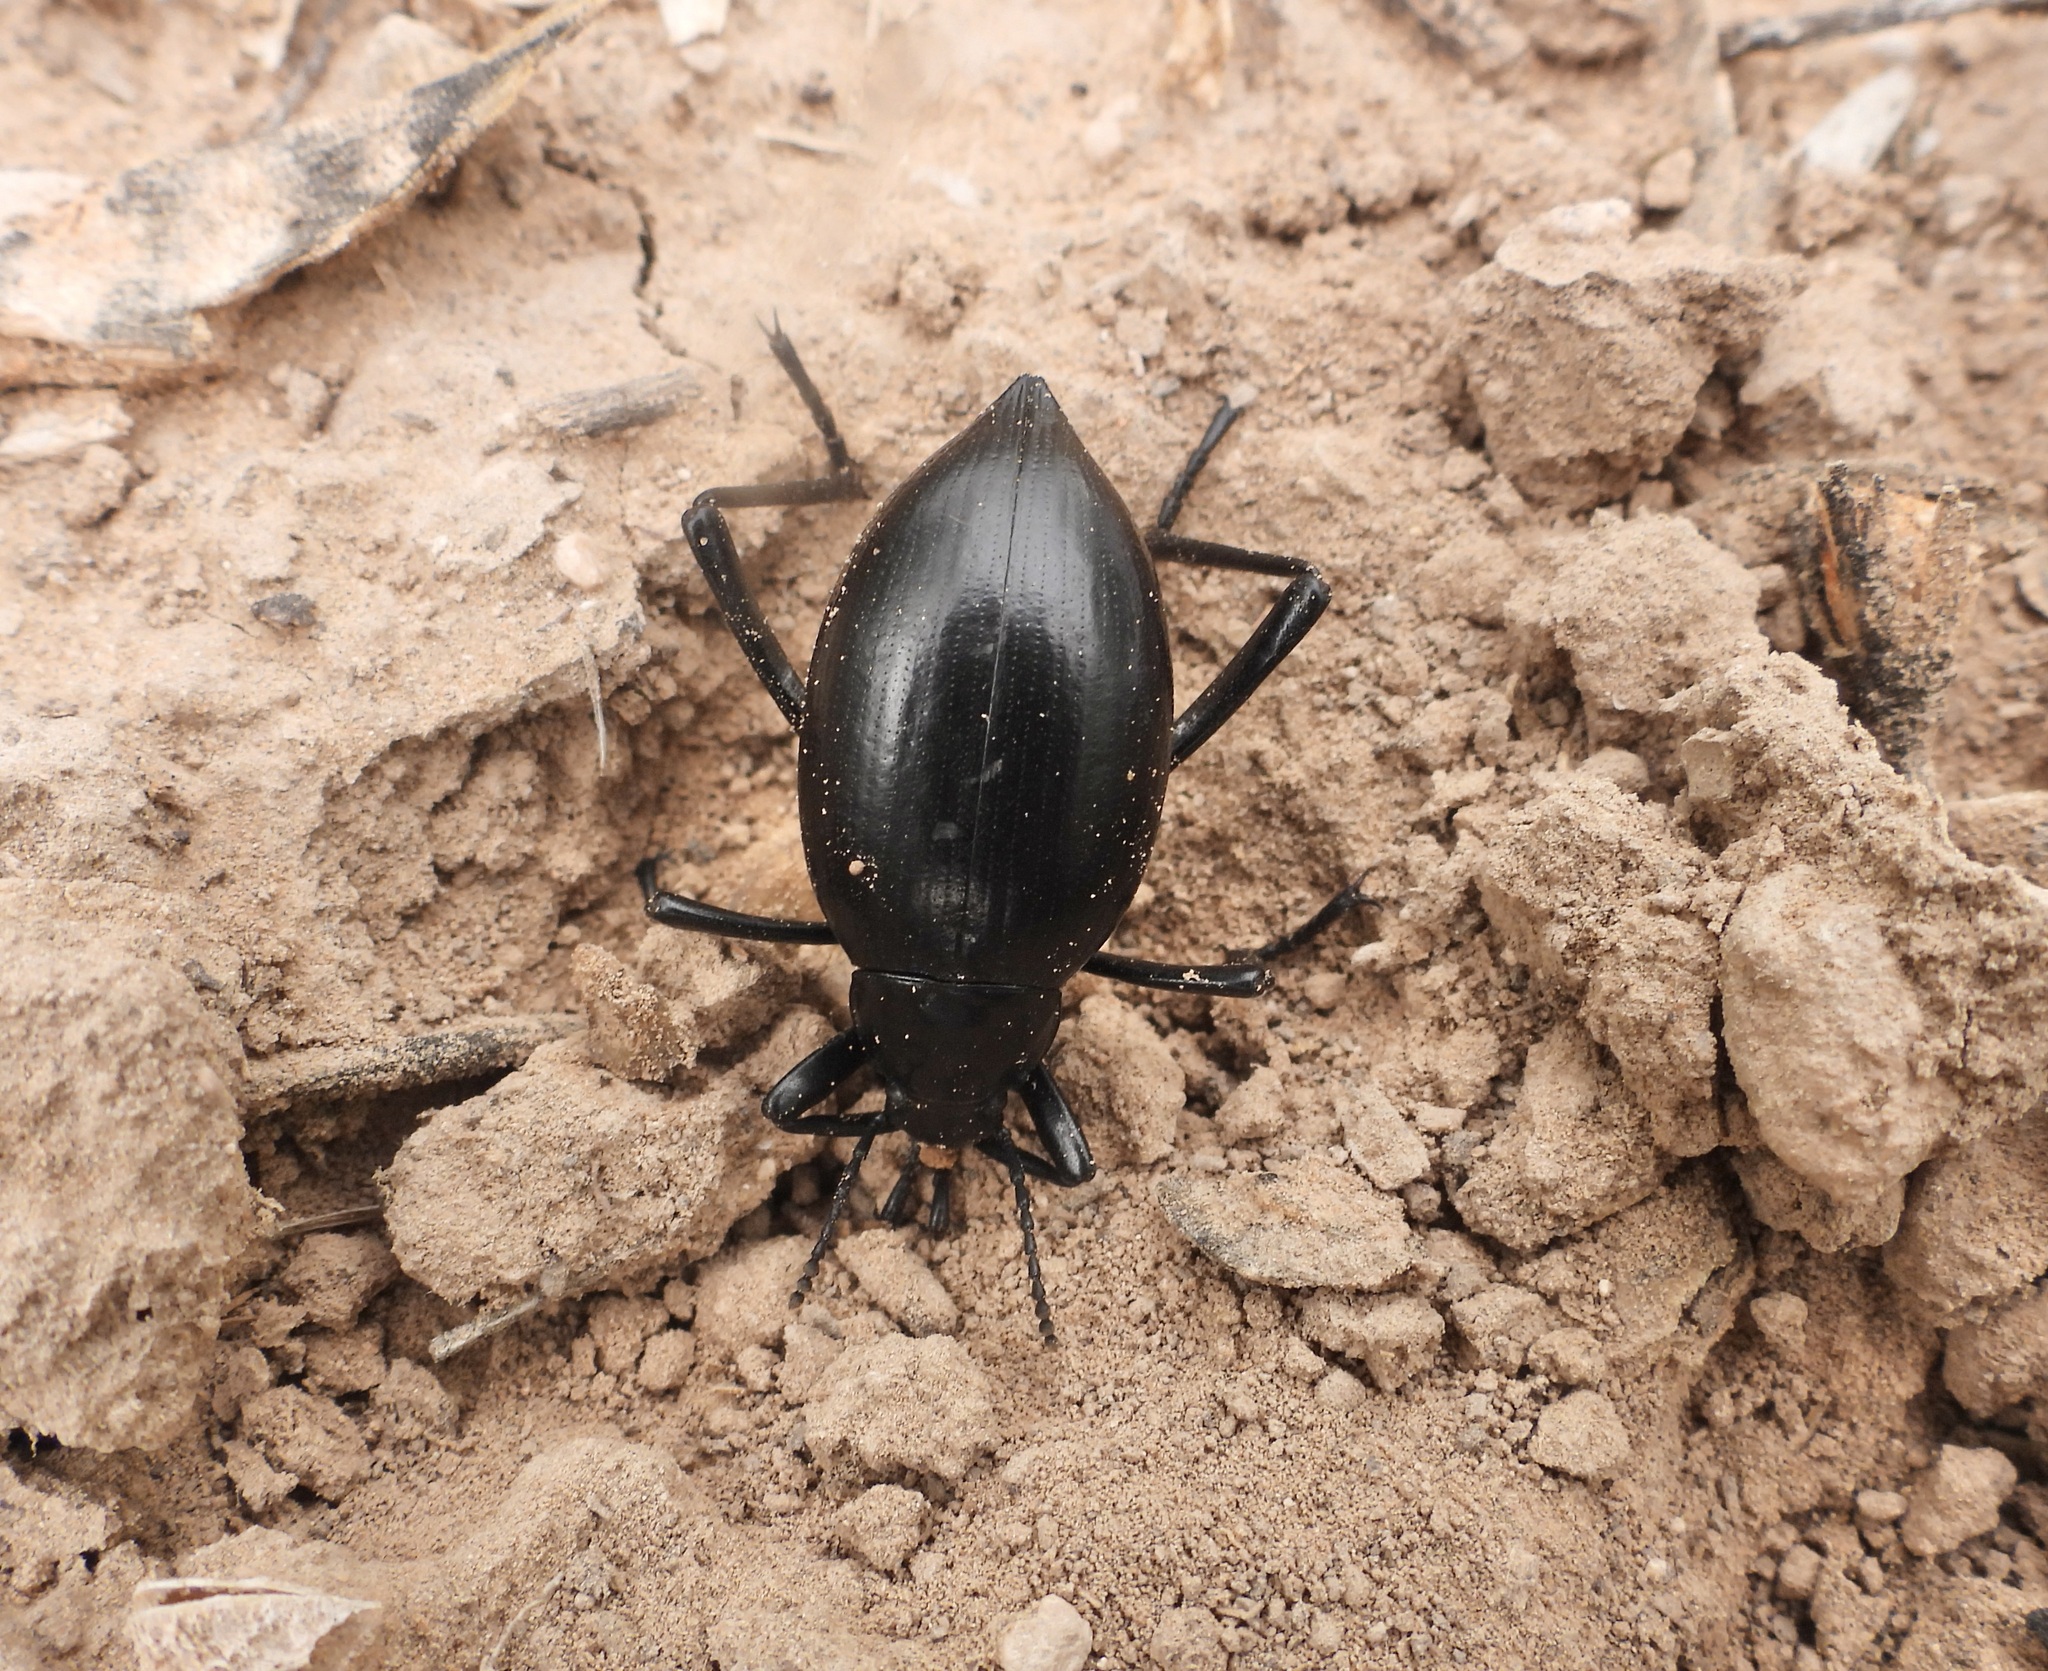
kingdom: Animalia
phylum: Arthropoda
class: Insecta
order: Coleoptera
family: Tenebrionidae
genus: Eleodes
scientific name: Eleodes spinipes
